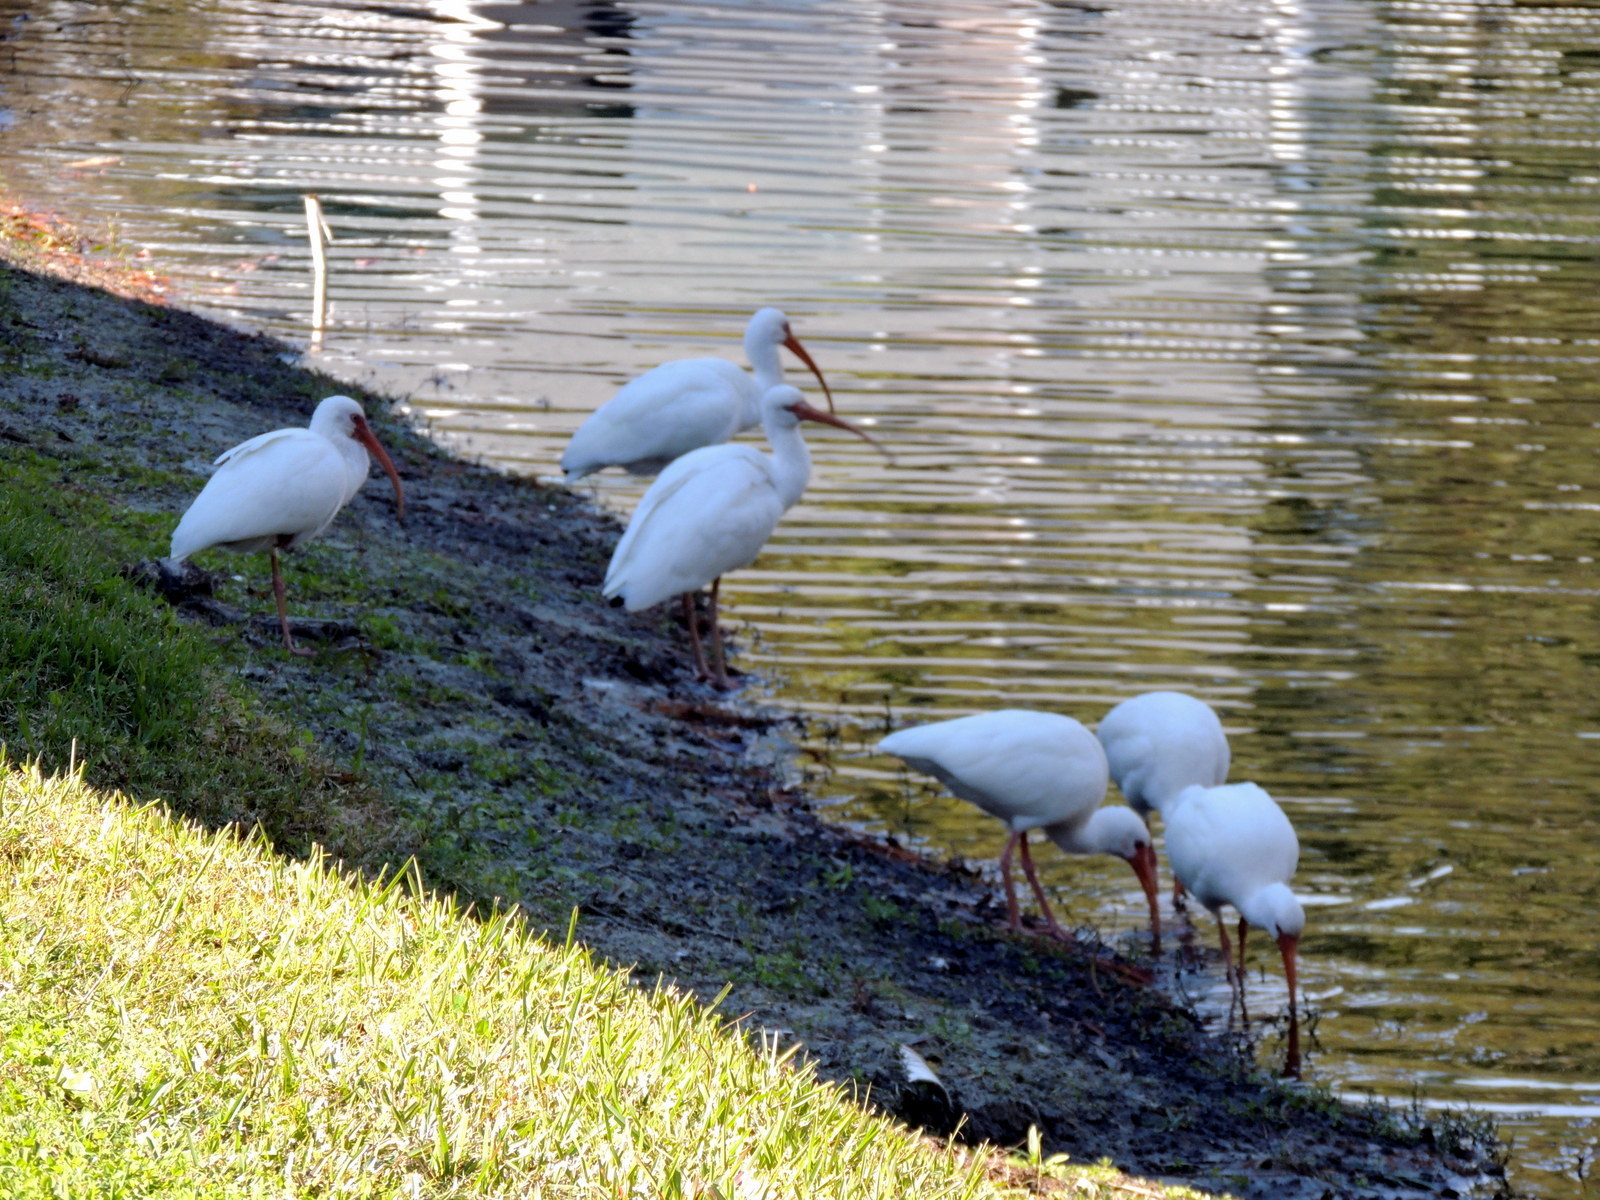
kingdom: Animalia
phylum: Chordata
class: Aves
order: Pelecaniformes
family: Threskiornithidae
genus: Eudocimus
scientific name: Eudocimus albus
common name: White ibis
